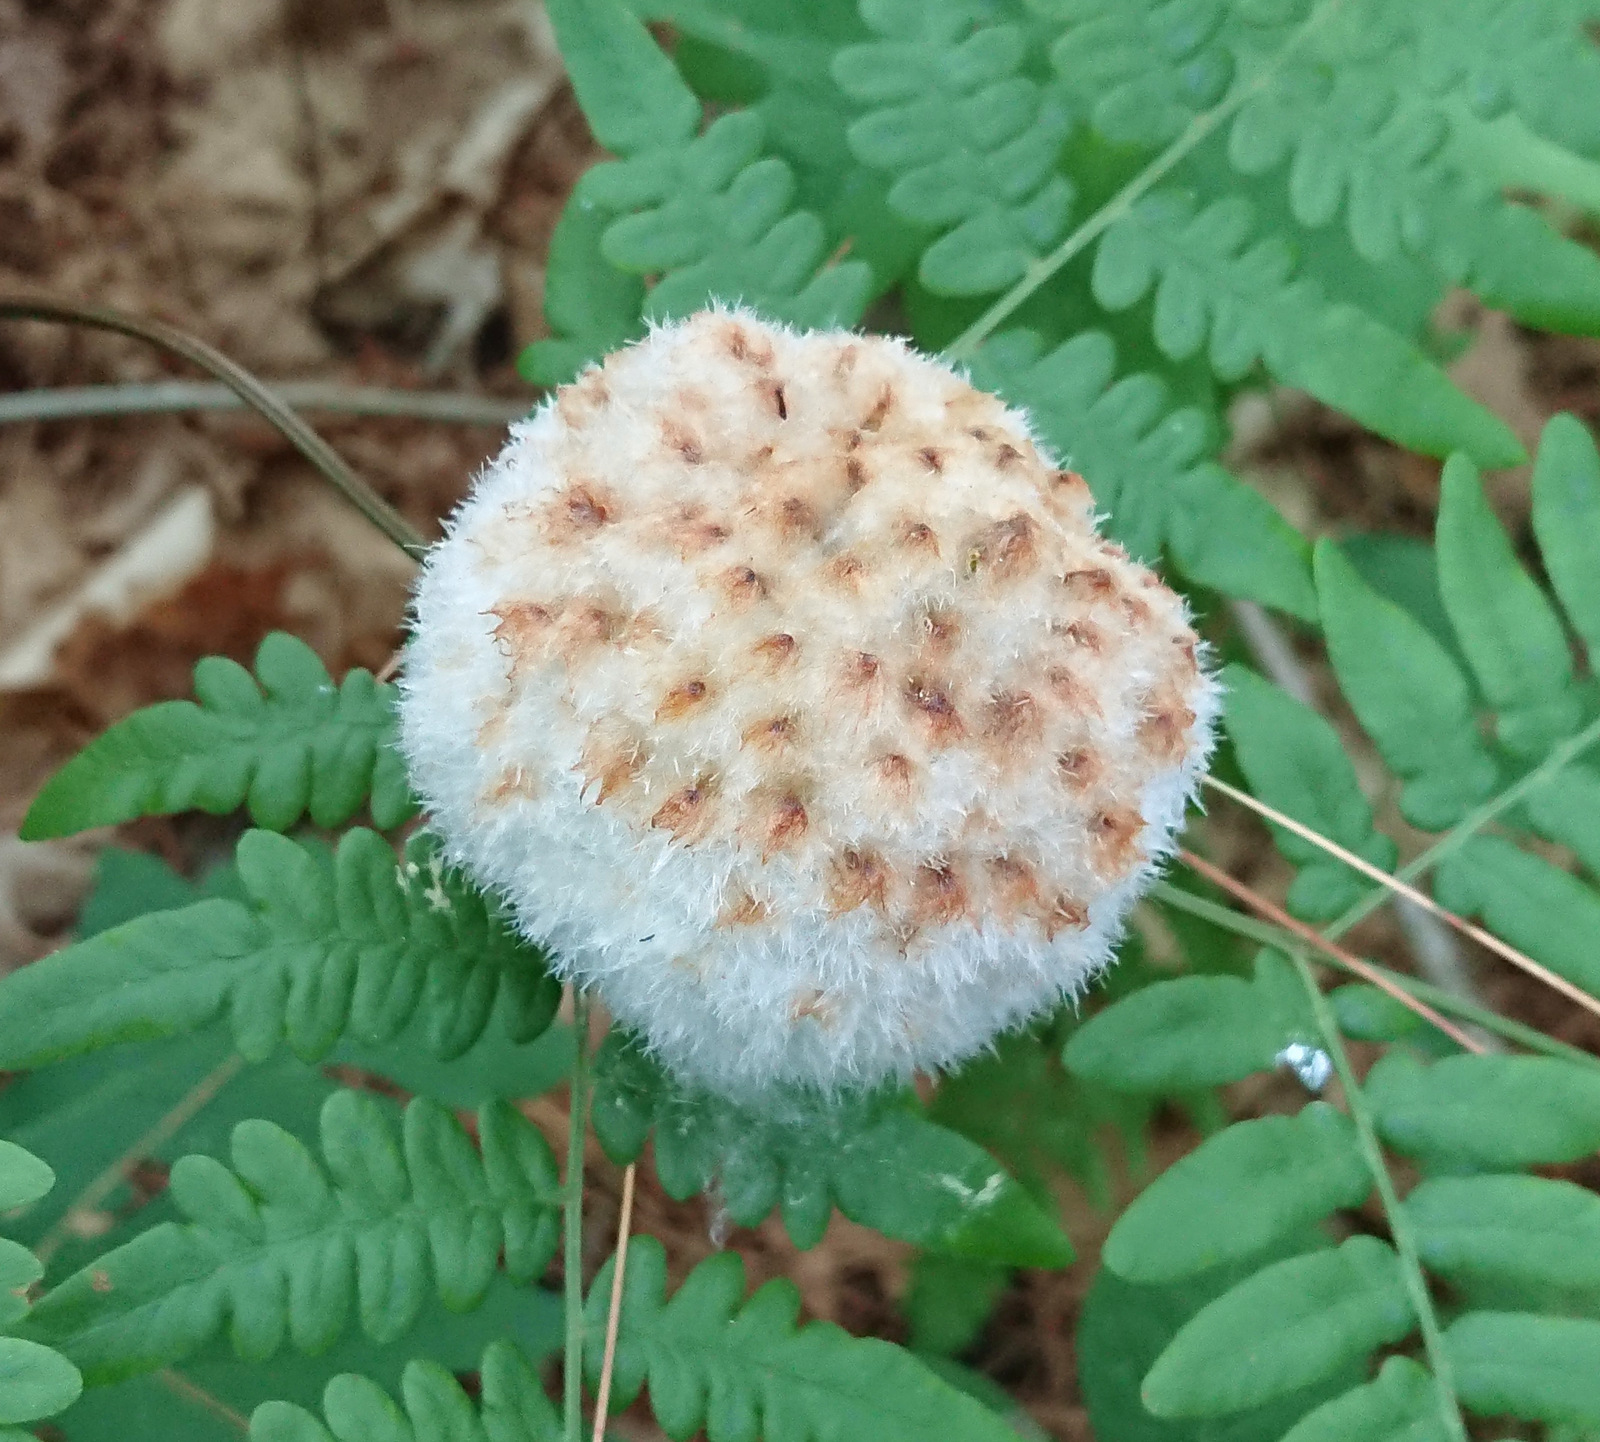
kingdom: Animalia
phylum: Arthropoda
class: Insecta
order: Hymenoptera
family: Cynipidae
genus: Callirhytis
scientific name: Callirhytis
